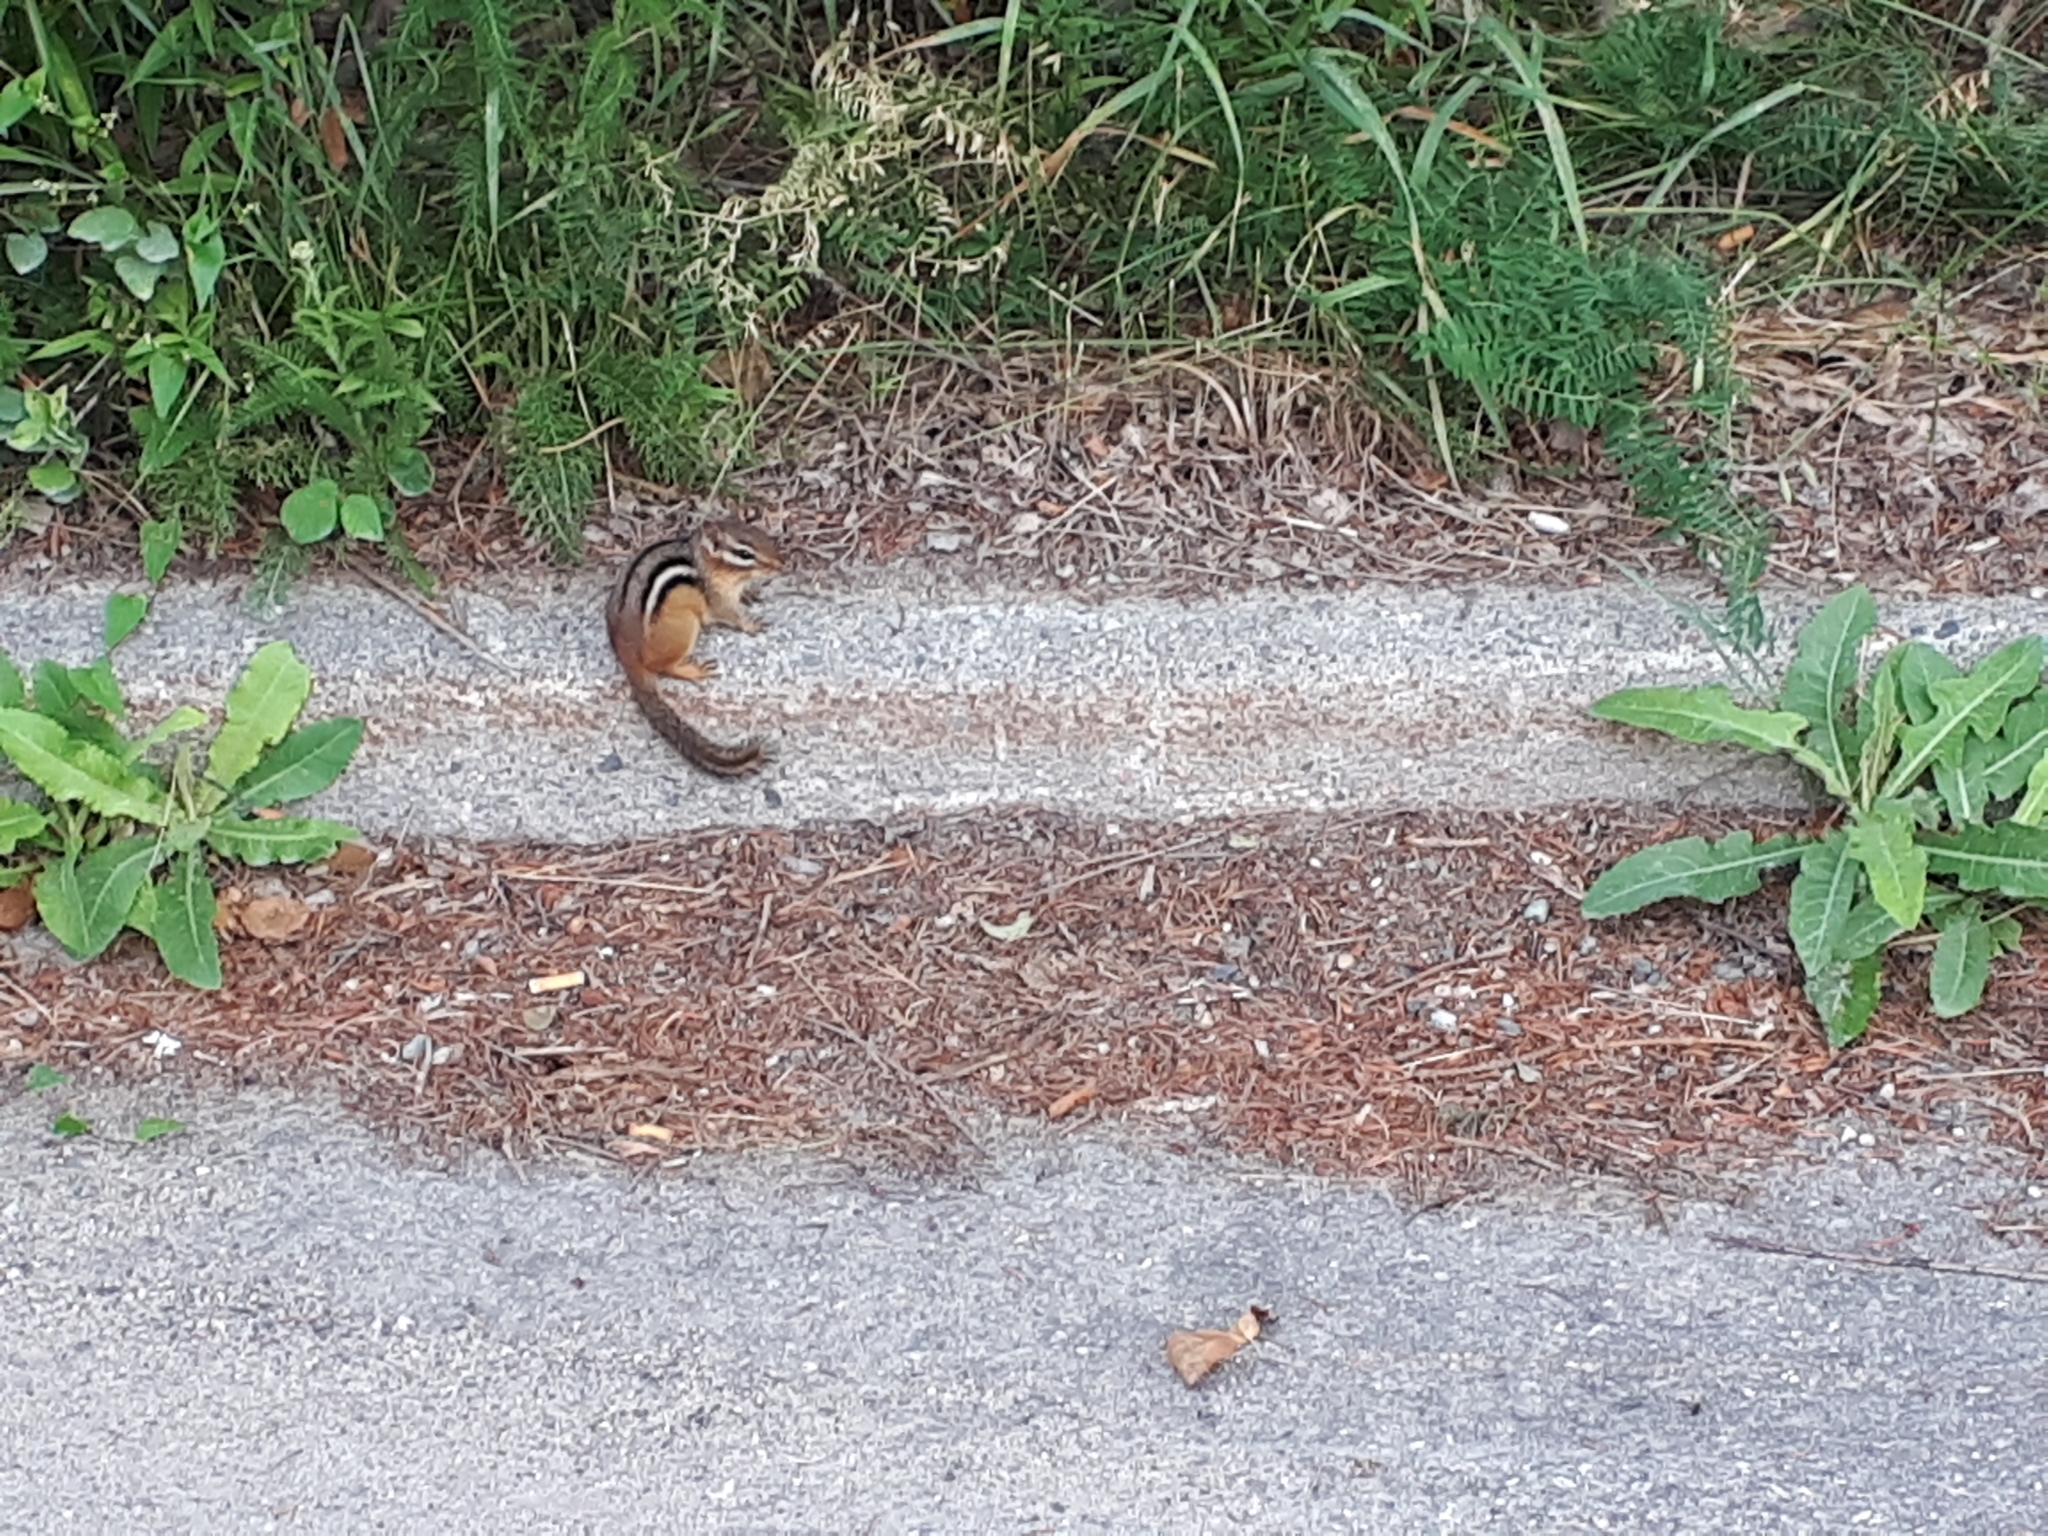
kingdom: Animalia
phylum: Chordata
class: Mammalia
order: Rodentia
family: Sciuridae
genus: Tamias
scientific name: Tamias striatus
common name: Eastern chipmunk
